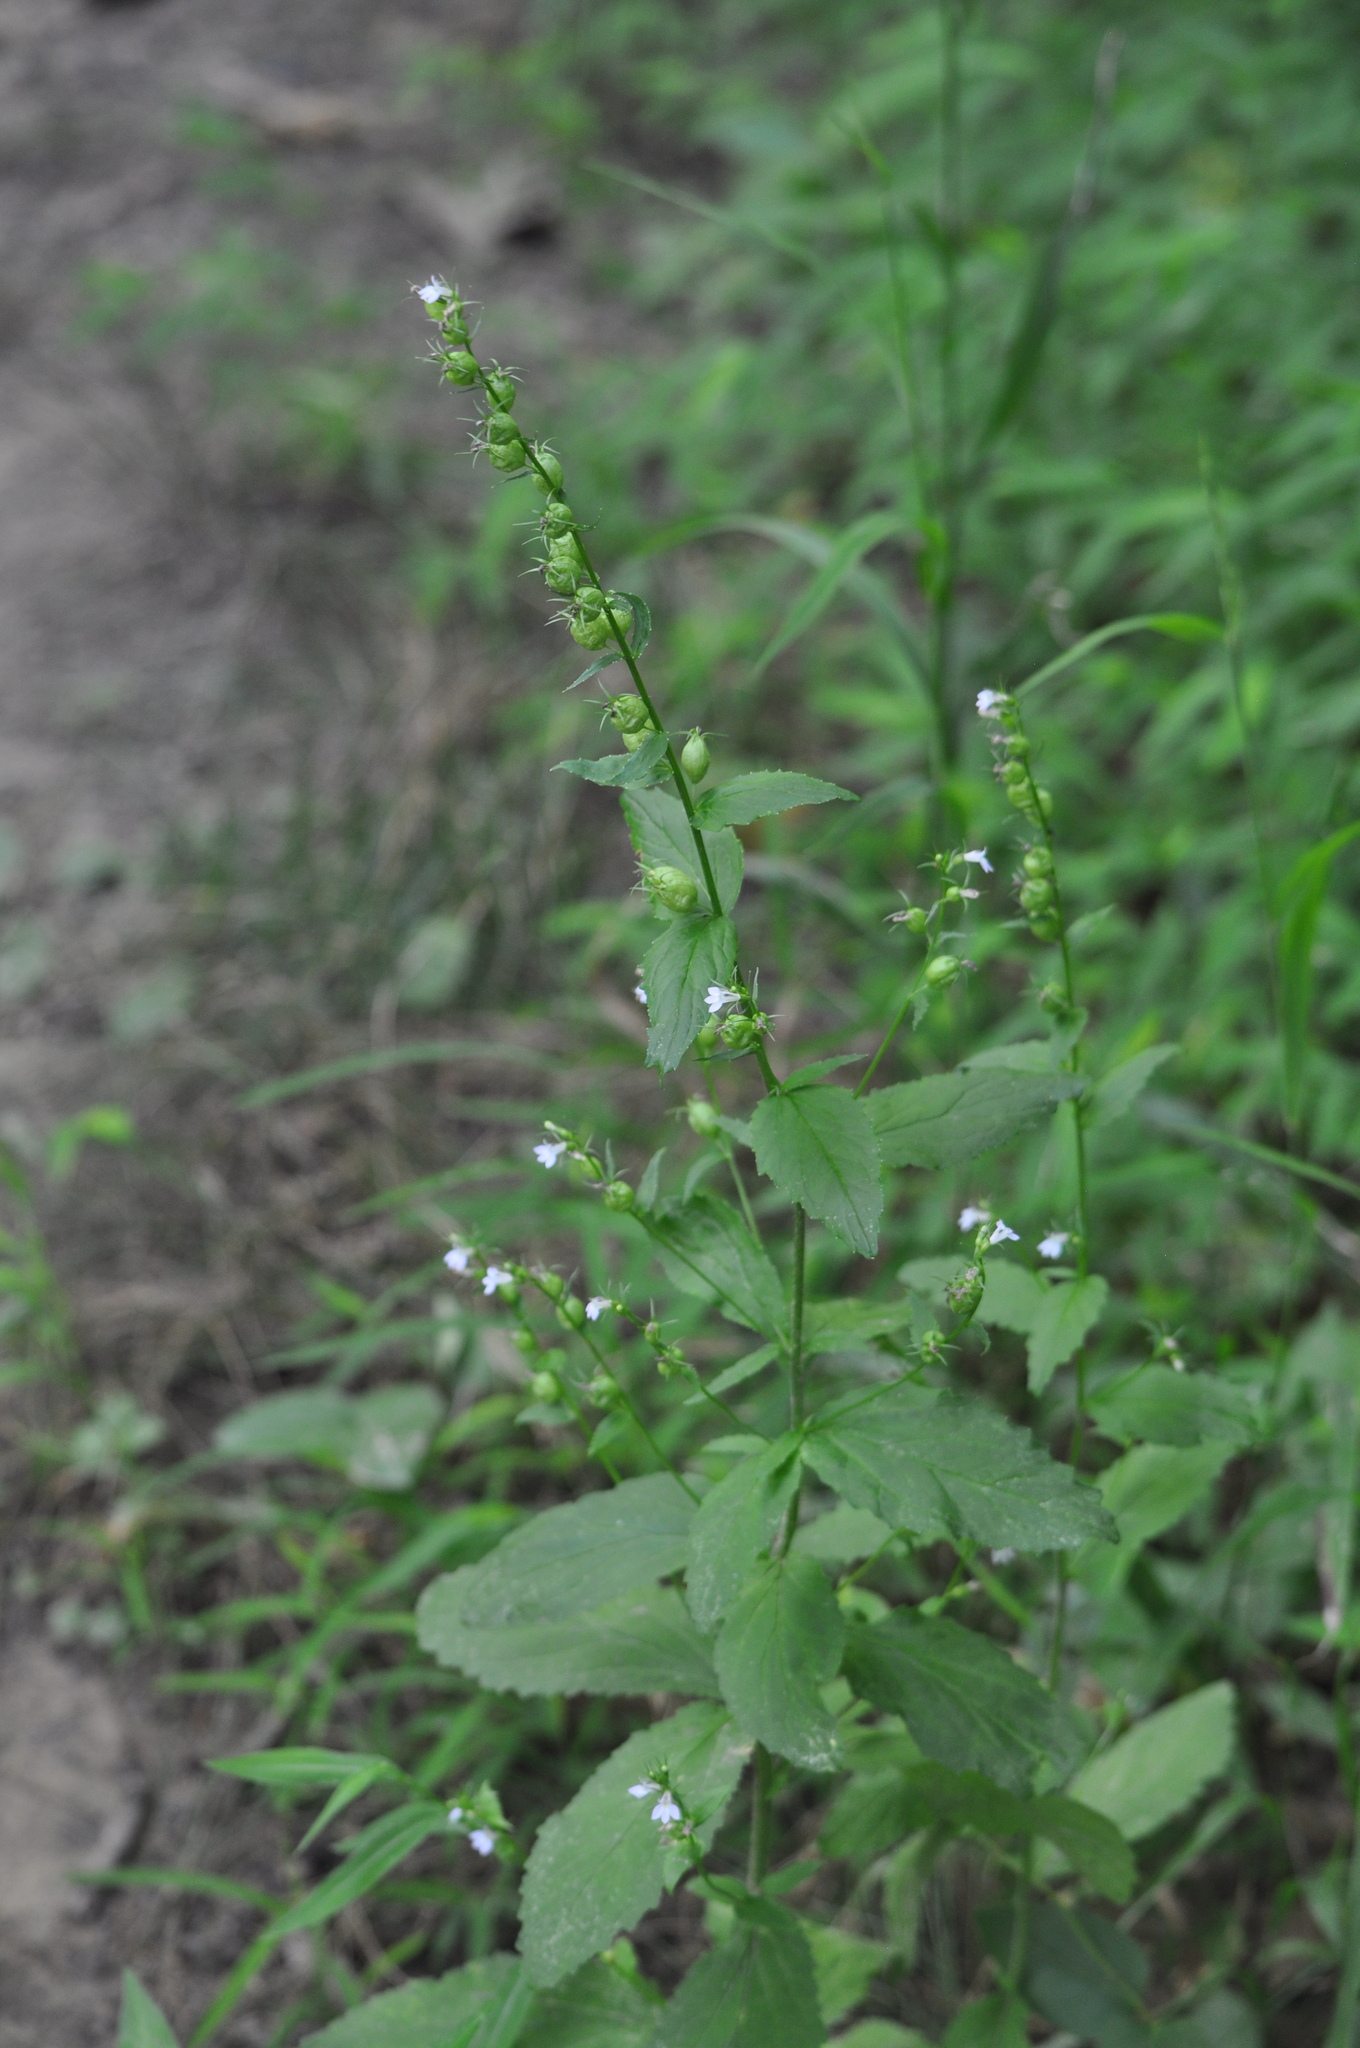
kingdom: Plantae
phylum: Tracheophyta
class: Magnoliopsida
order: Asterales
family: Campanulaceae
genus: Lobelia
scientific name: Lobelia inflata
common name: Indian tobacco
